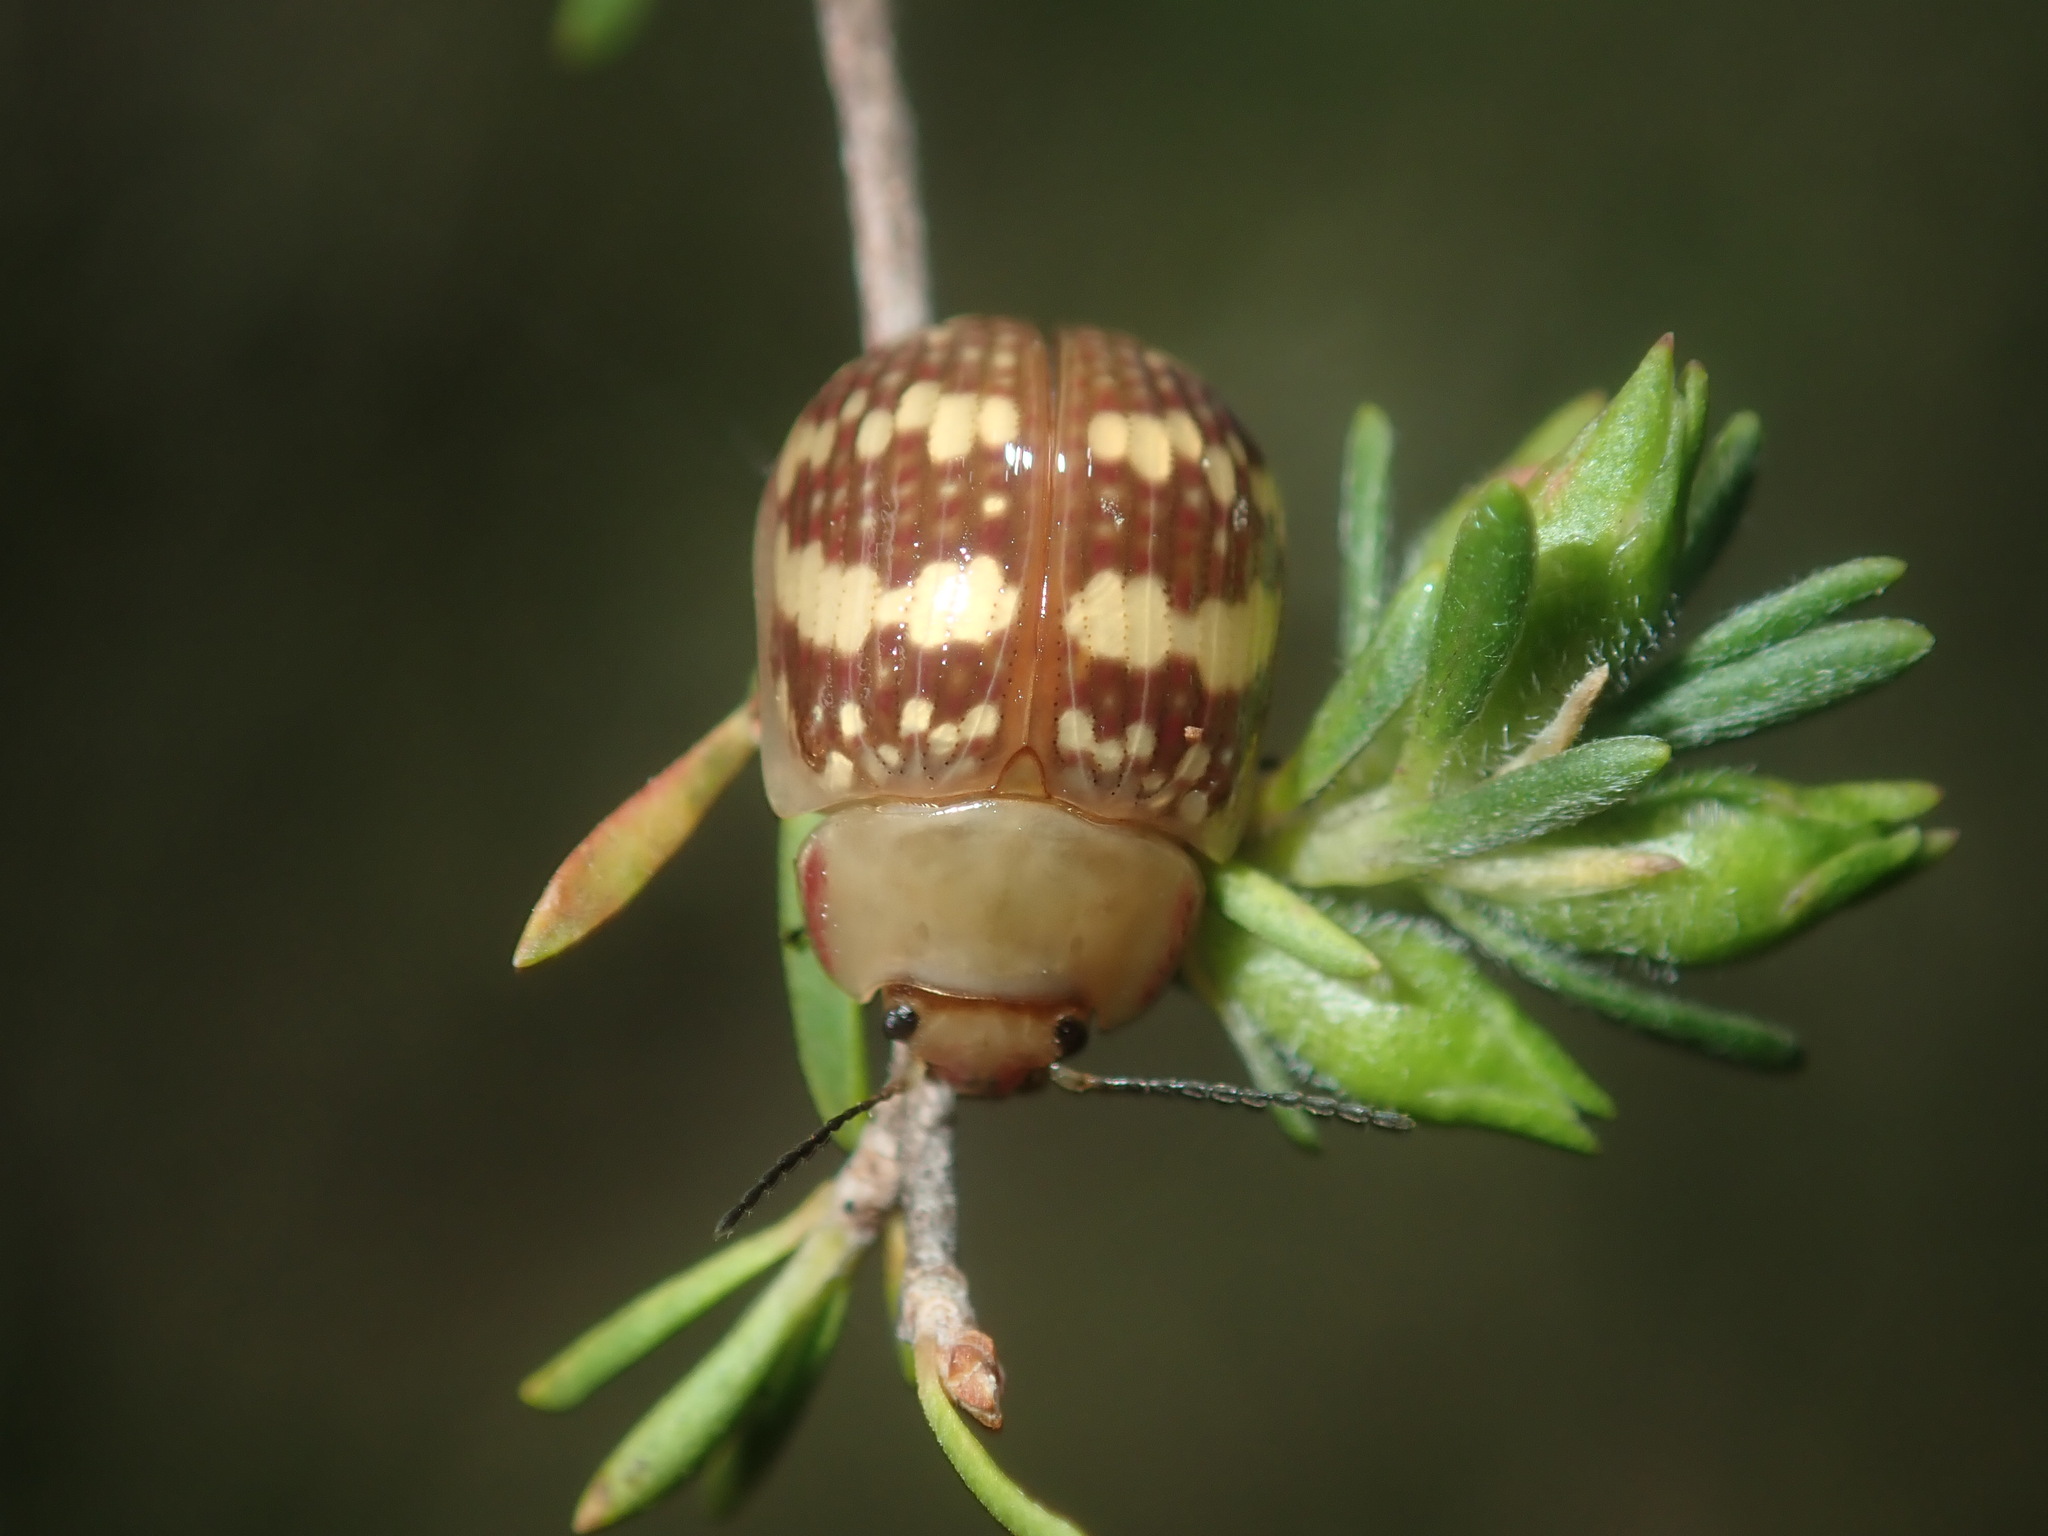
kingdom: Animalia
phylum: Arthropoda
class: Insecta
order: Coleoptera
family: Chrysomelidae
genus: Paropsis
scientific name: Paropsis
